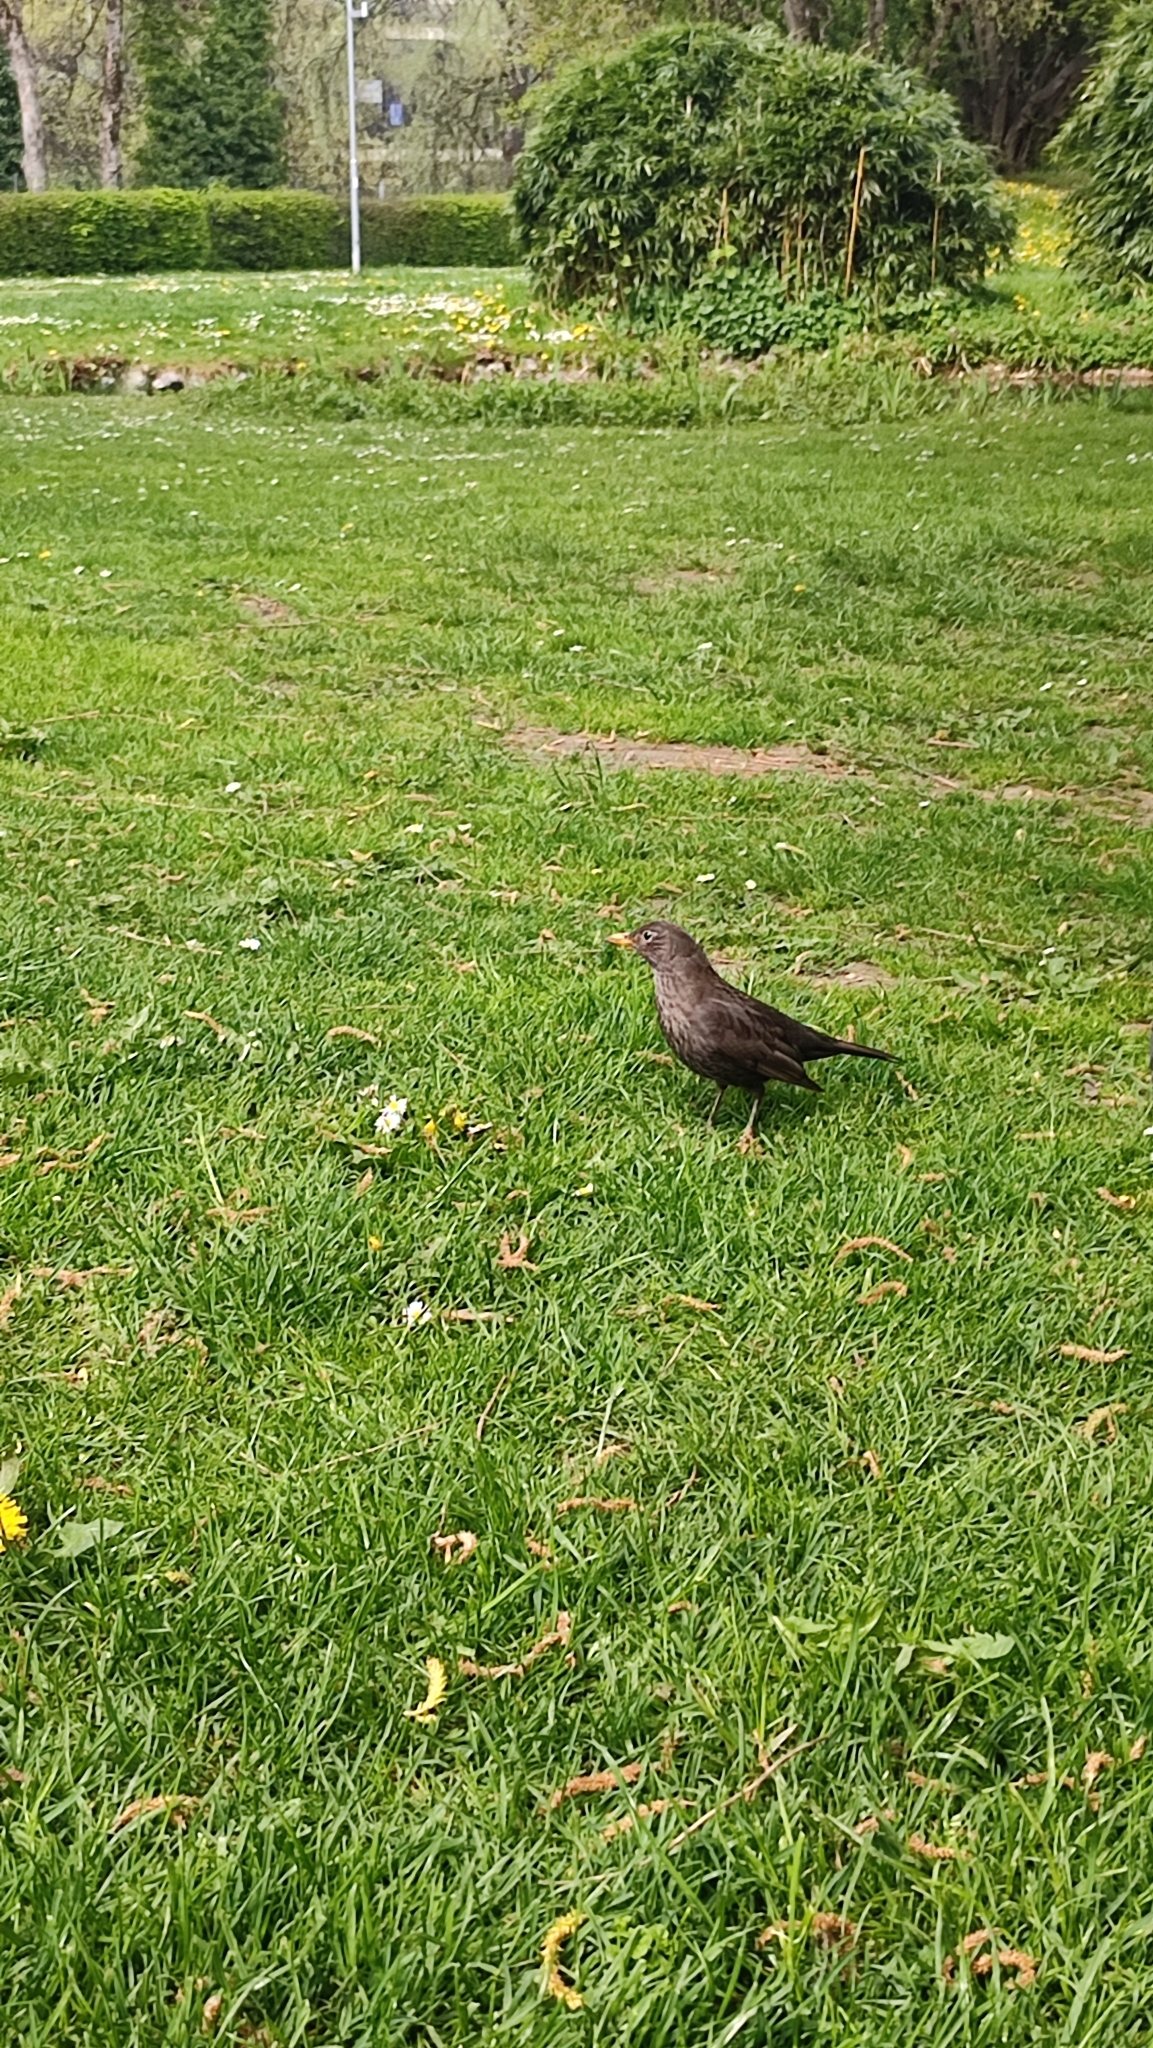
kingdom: Animalia
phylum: Chordata
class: Aves
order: Passeriformes
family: Turdidae
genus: Turdus
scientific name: Turdus merula
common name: Common blackbird
